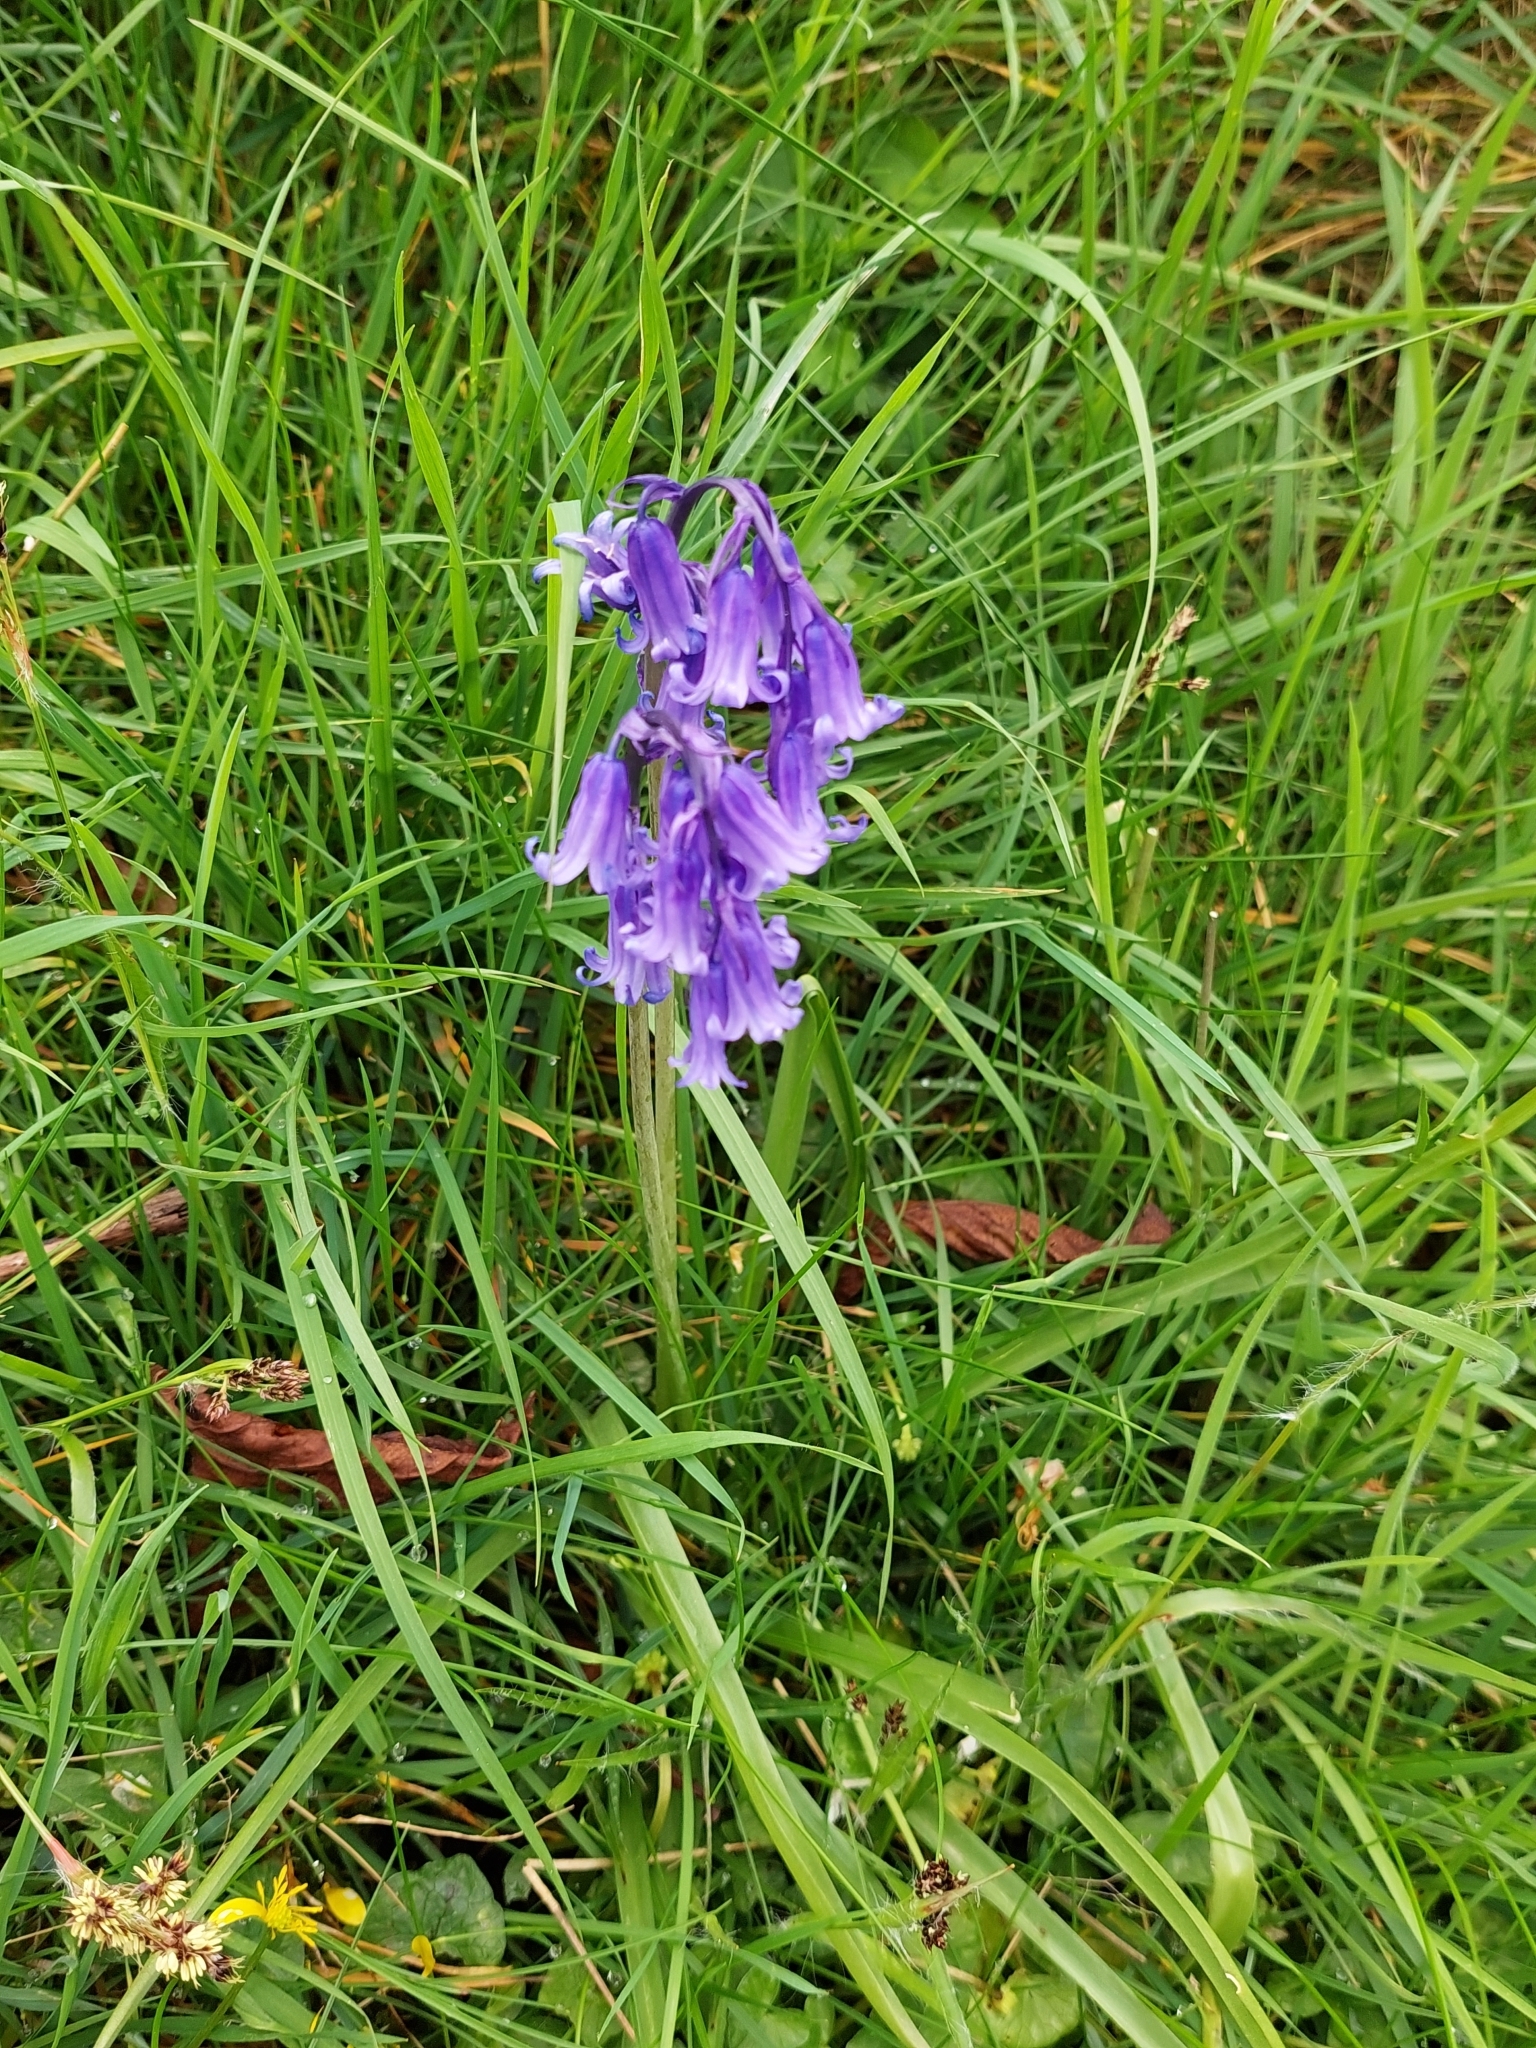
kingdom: Plantae
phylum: Tracheophyta
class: Liliopsida
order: Asparagales
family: Asparagaceae
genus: Hyacinthoides
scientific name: Hyacinthoides non-scripta
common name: Bluebell
